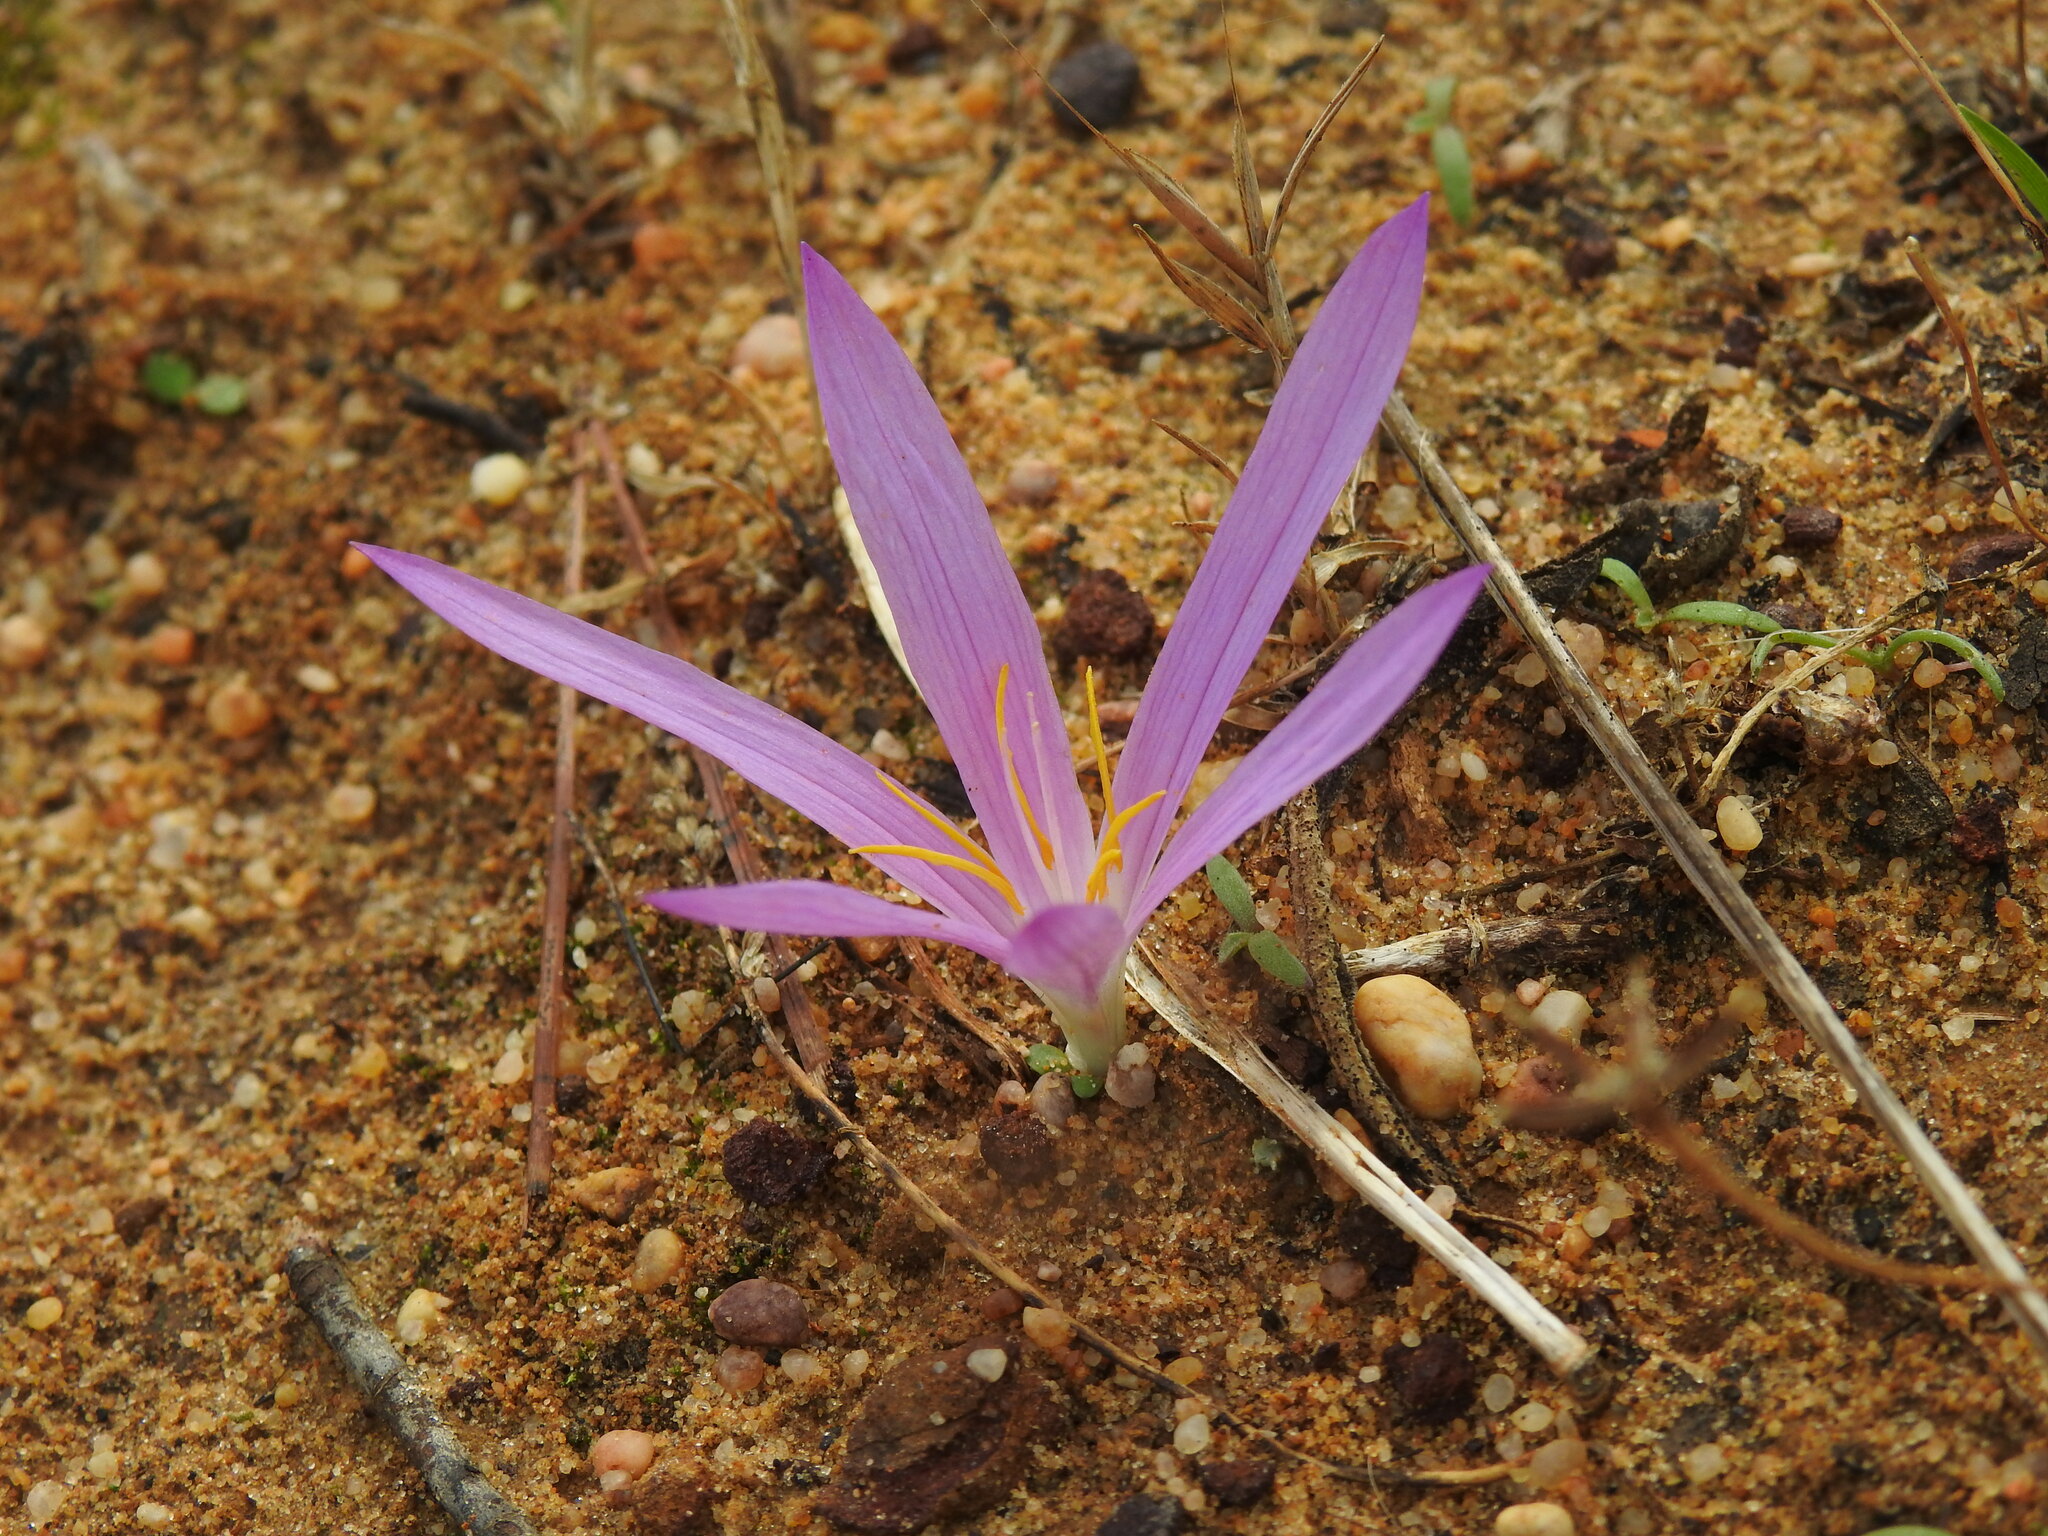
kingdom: Plantae
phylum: Tracheophyta
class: Liliopsida
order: Liliales
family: Colchicaceae
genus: Colchicum
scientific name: Colchicum filifolium
